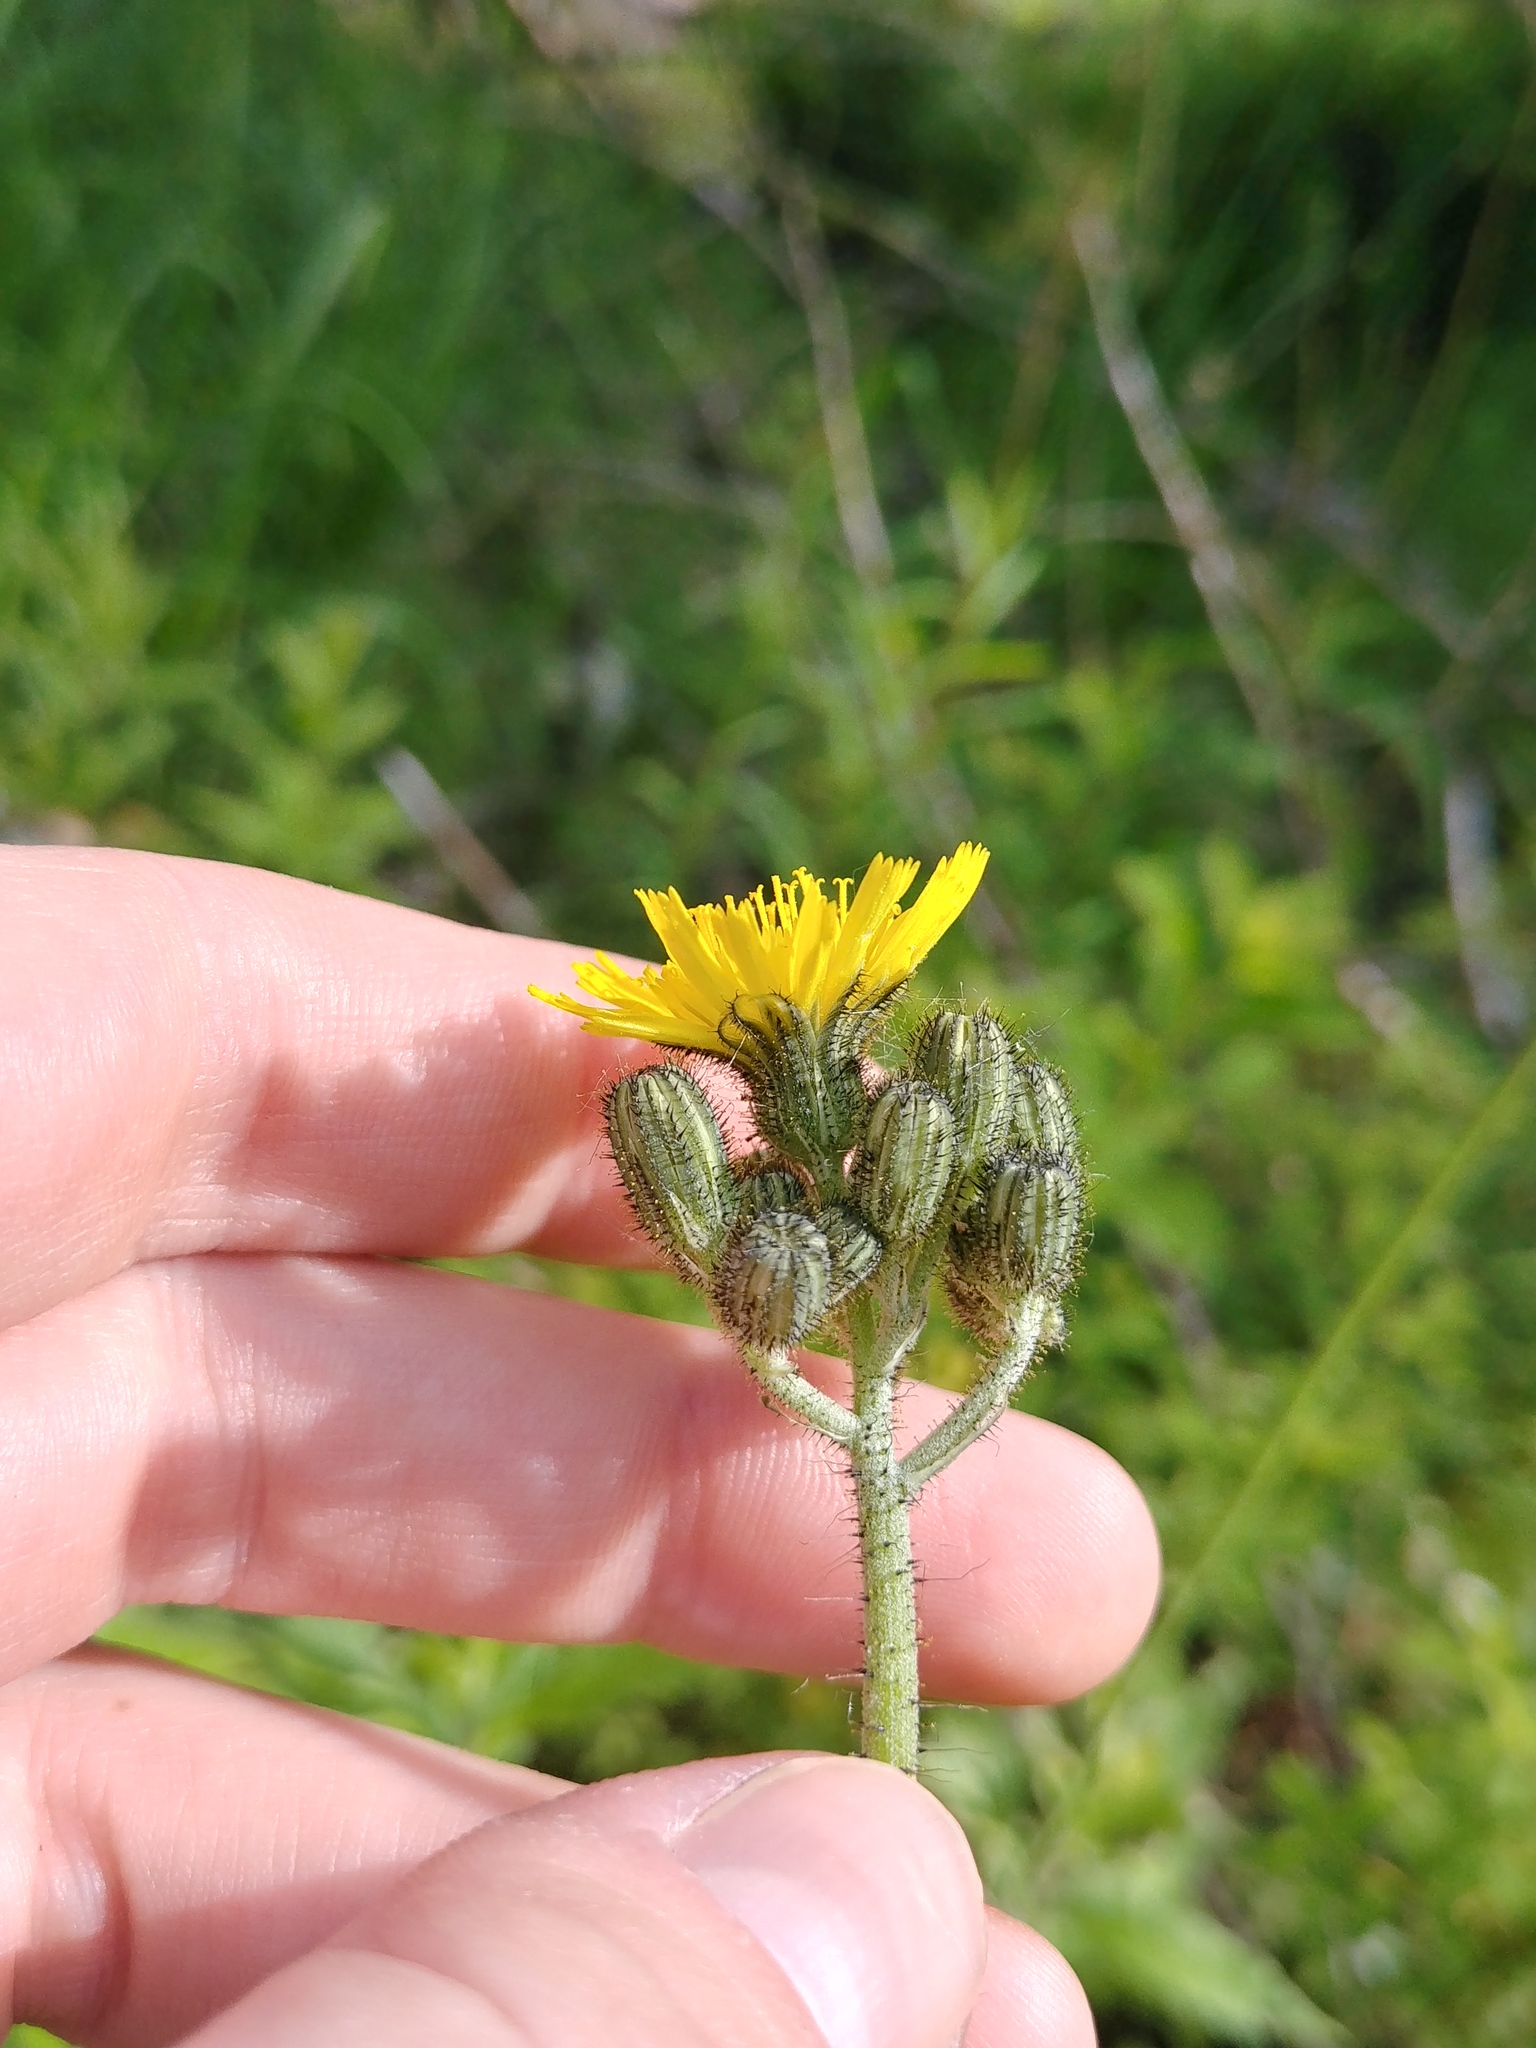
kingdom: Plantae
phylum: Tracheophyta
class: Magnoliopsida
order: Asterales
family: Asteraceae
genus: Pilosella
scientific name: Pilosella caespitosa
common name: Yellow fox-and-cubs
